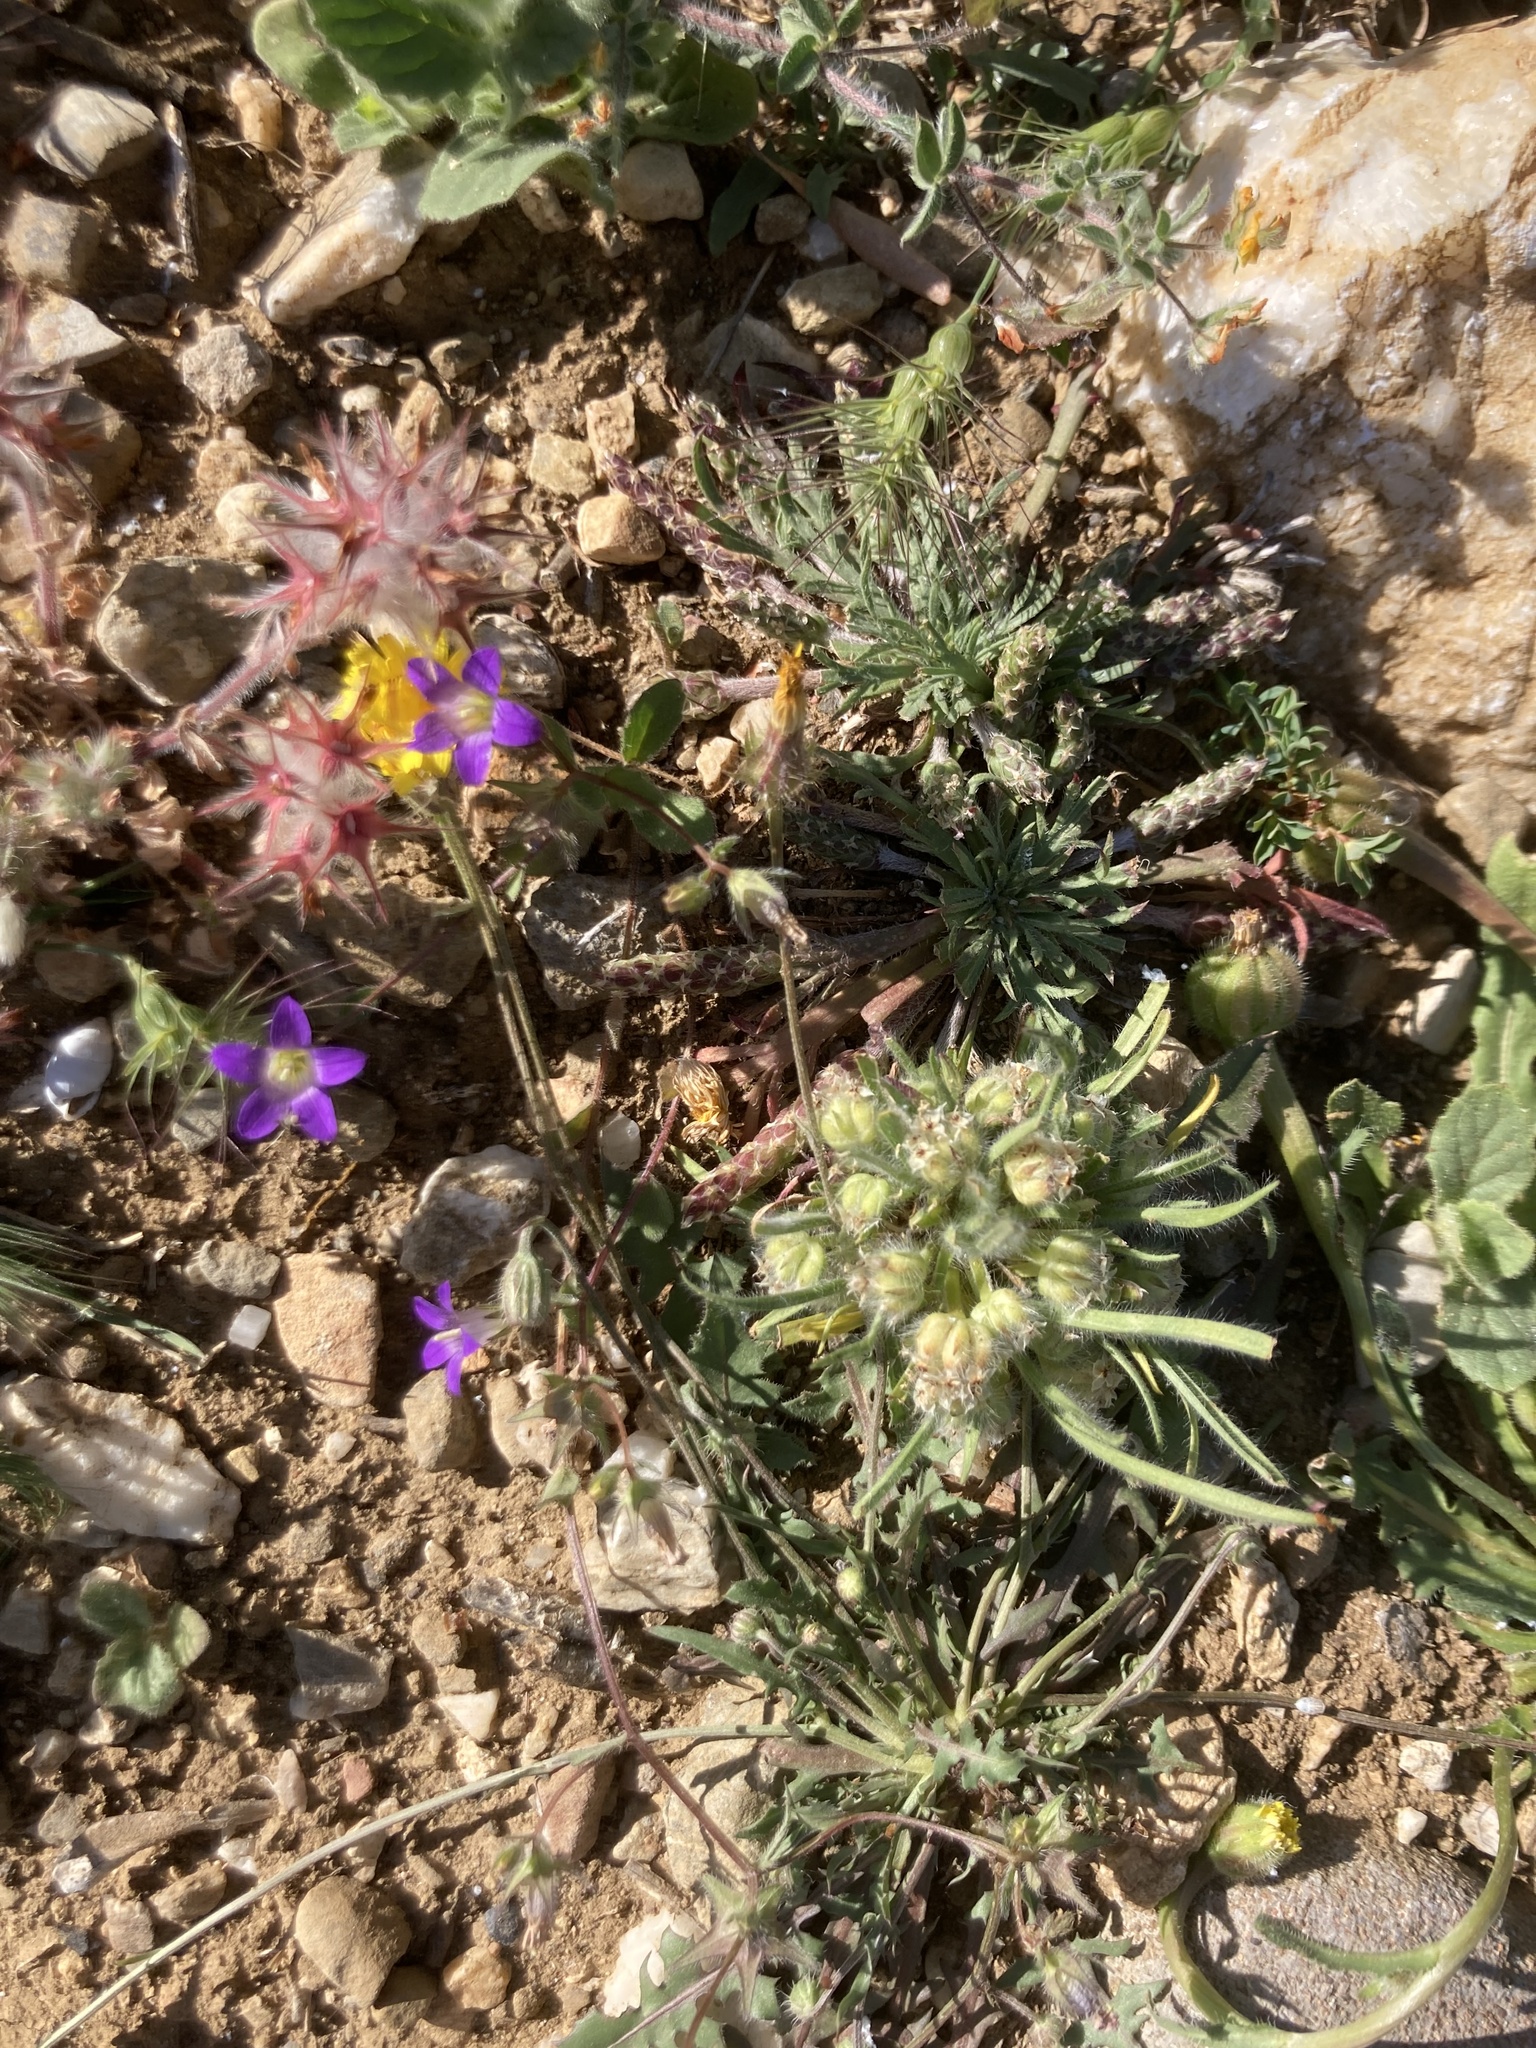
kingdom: Plantae
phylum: Tracheophyta
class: Magnoliopsida
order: Lamiales
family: Plantaginaceae
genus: Plantago
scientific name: Plantago cretica
